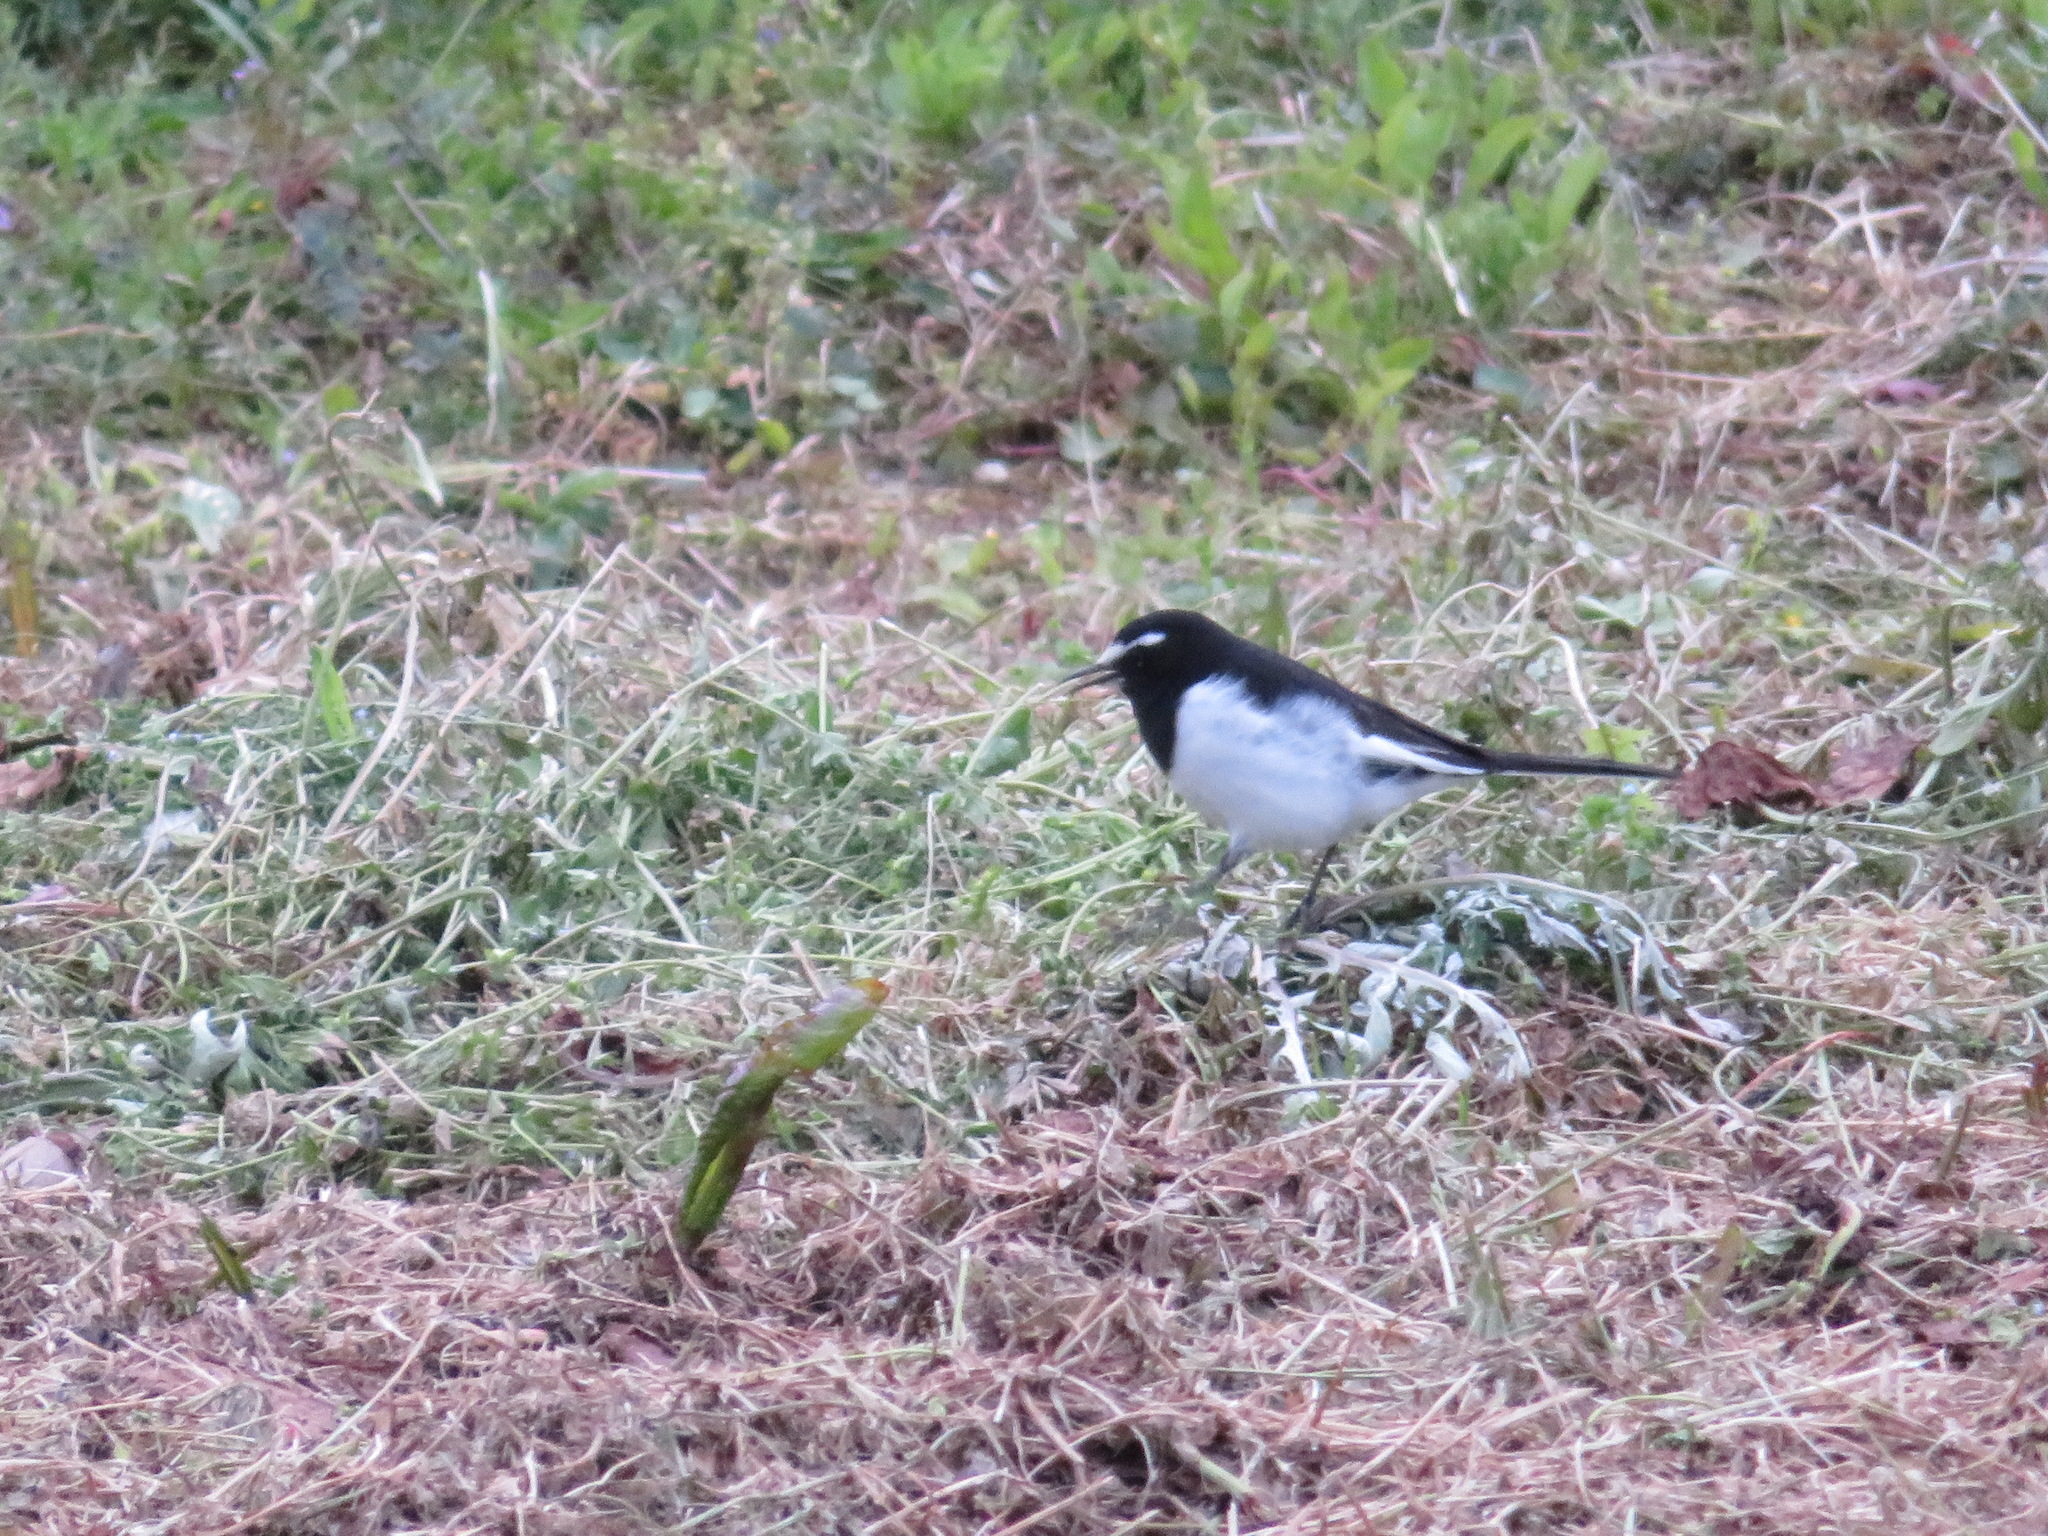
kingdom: Animalia
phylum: Chordata
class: Aves
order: Passeriformes
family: Motacillidae
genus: Motacilla
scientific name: Motacilla grandis
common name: Japanese wagtail
